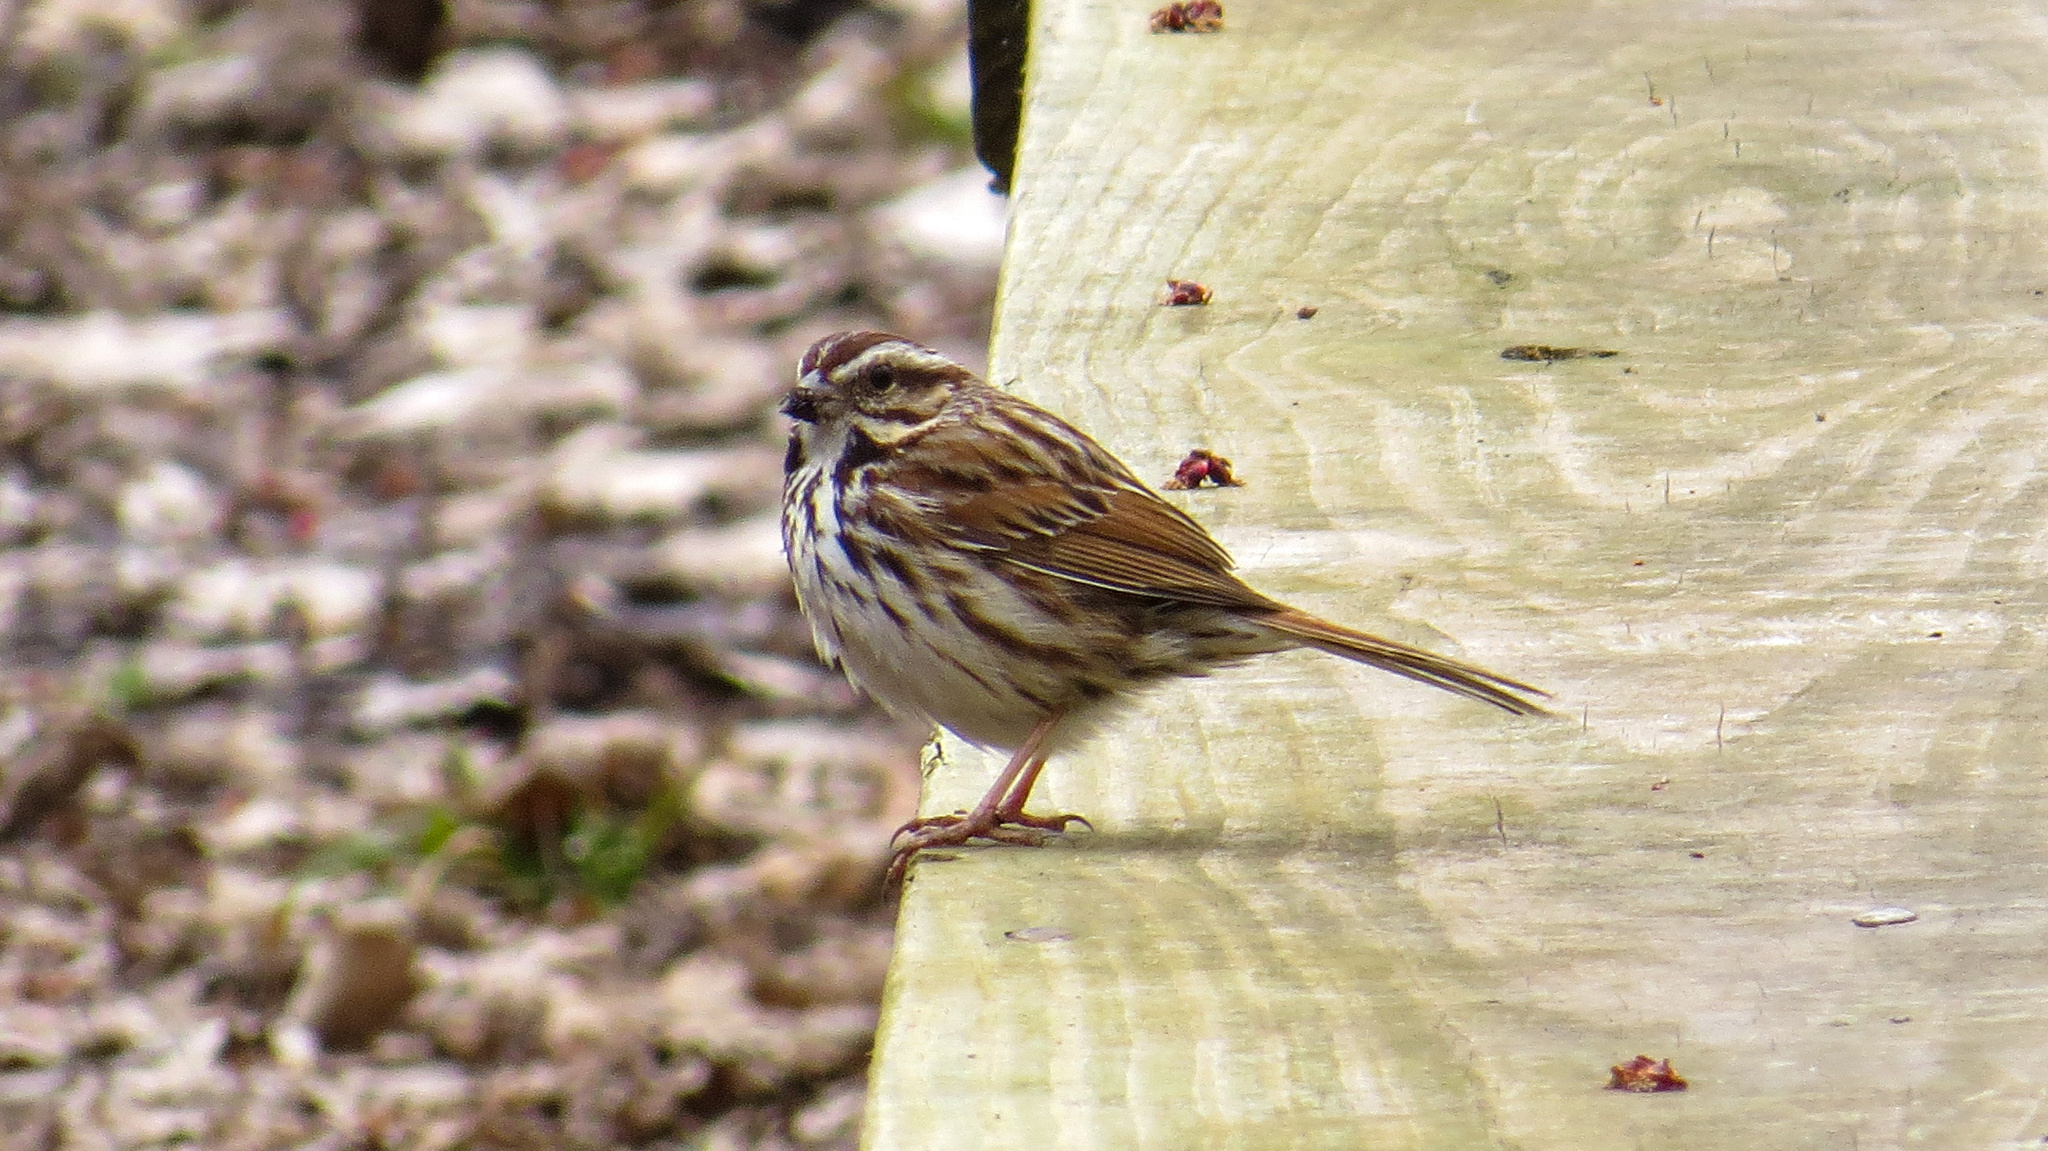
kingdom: Animalia
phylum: Chordata
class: Aves
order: Passeriformes
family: Passerellidae
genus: Melospiza
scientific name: Melospiza melodia
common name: Song sparrow
